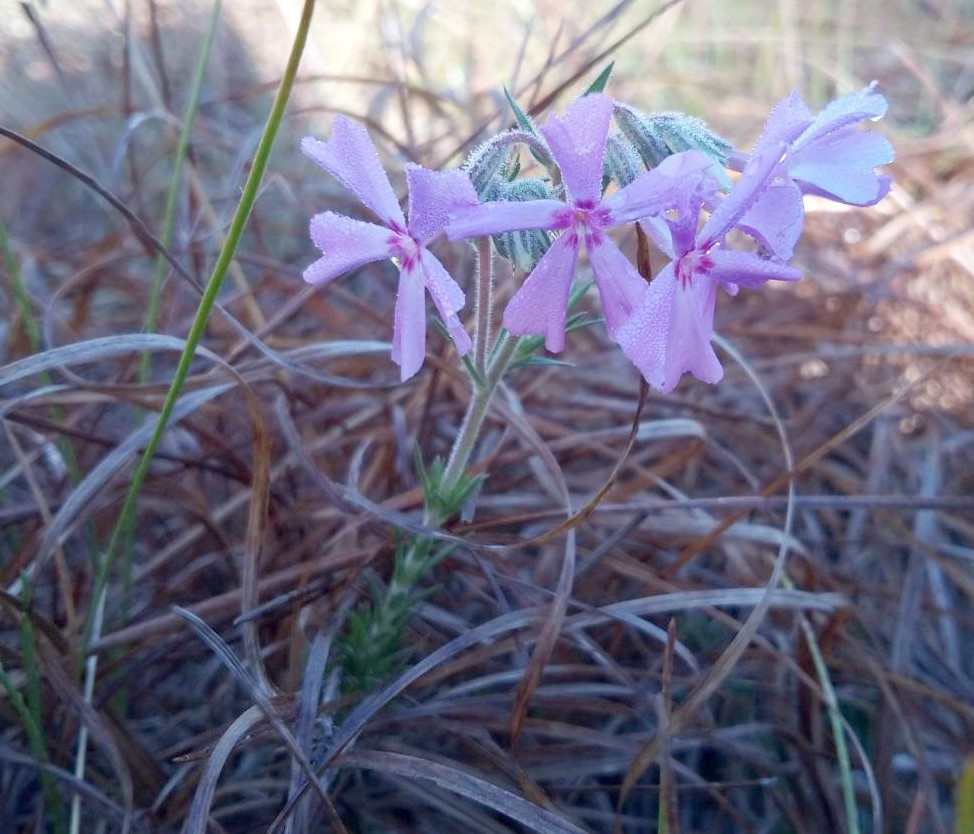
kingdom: Plantae
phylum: Tracheophyta
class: Magnoliopsida
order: Ericales
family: Polemoniaceae
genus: Phlox
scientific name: Phlox nivalis
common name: Trailing phlox
